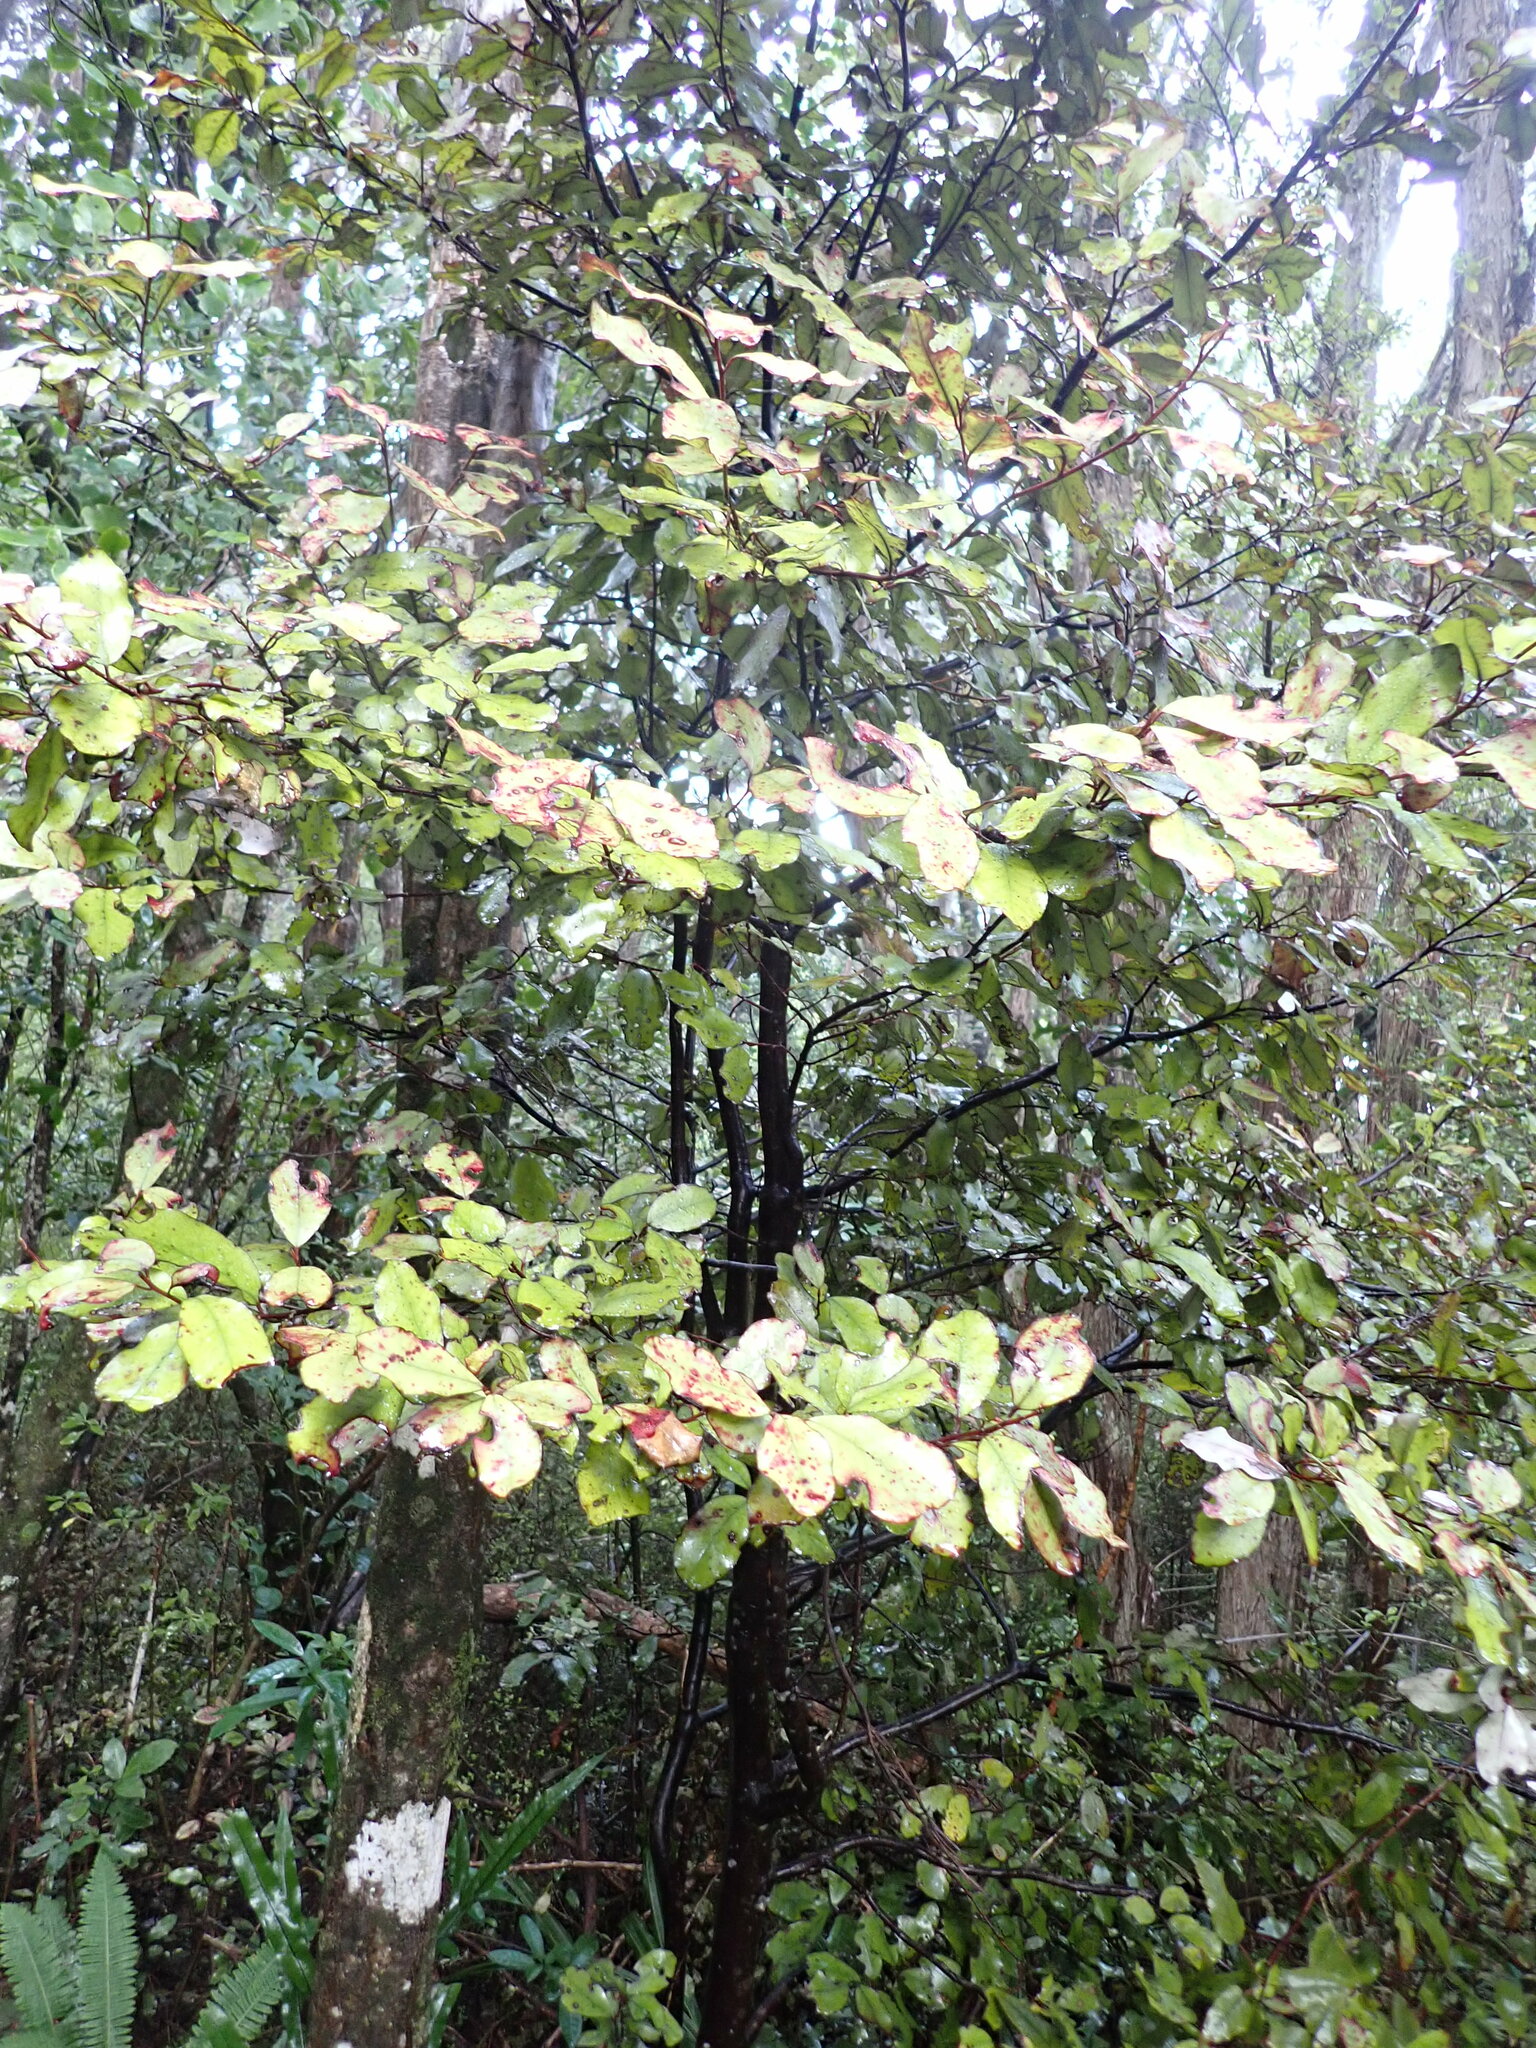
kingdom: Plantae
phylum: Tracheophyta
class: Magnoliopsida
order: Canellales
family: Winteraceae
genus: Pseudowintera
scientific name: Pseudowintera colorata
